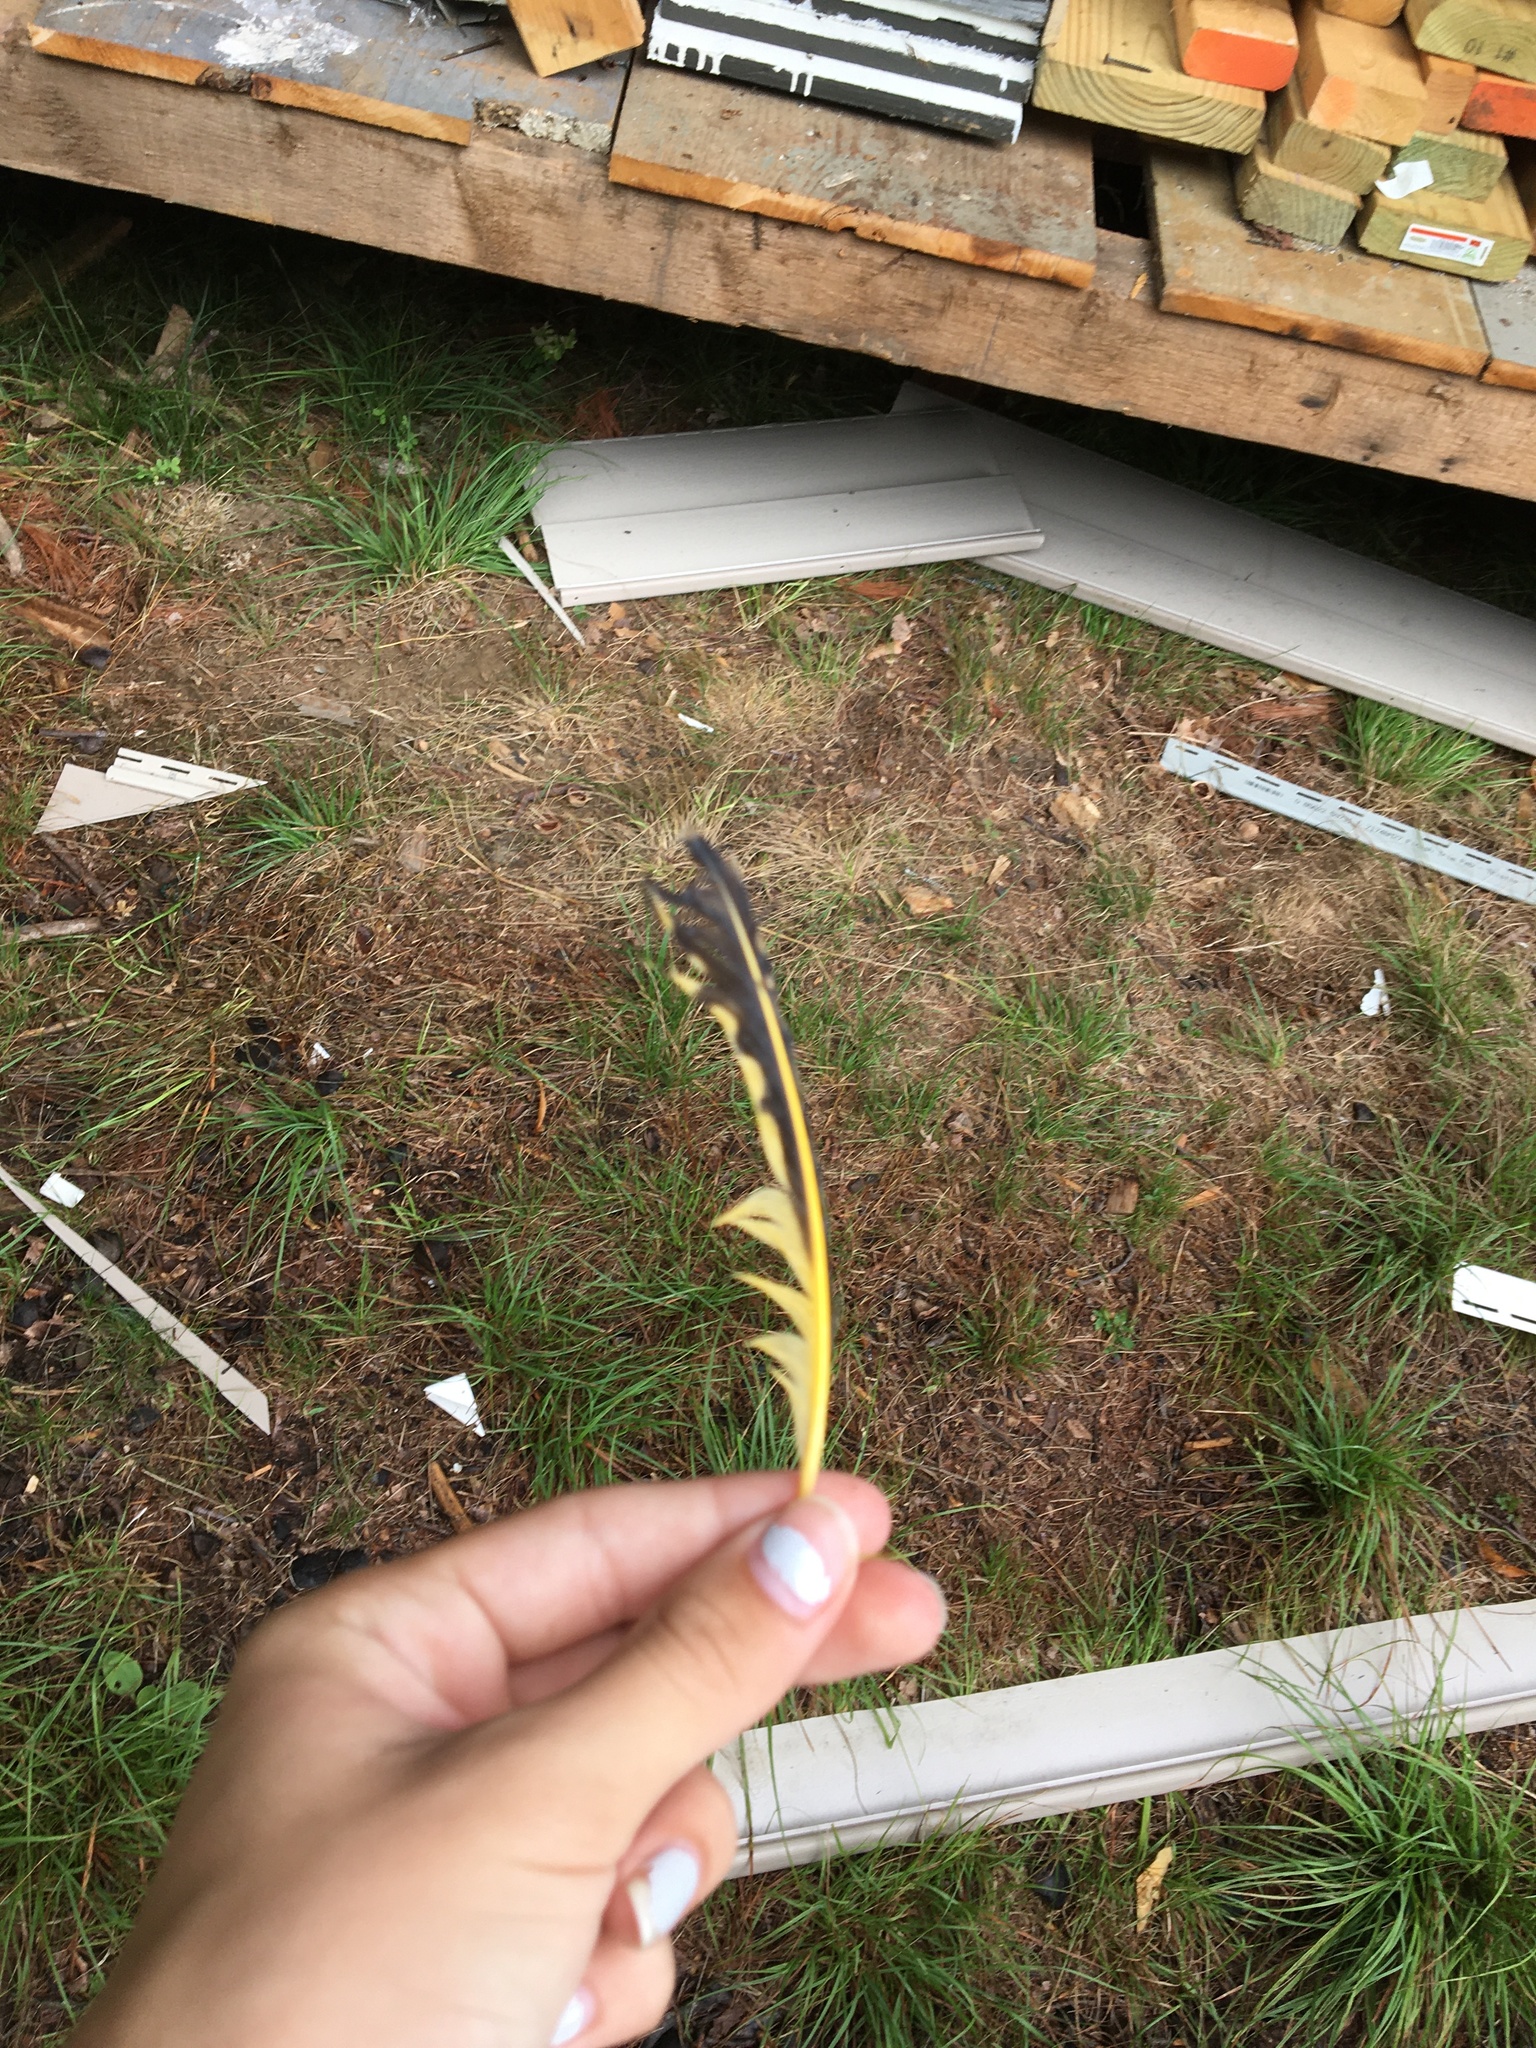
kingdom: Animalia
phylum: Chordata
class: Aves
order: Piciformes
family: Picidae
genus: Colaptes
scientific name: Colaptes auratus
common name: Northern flicker
